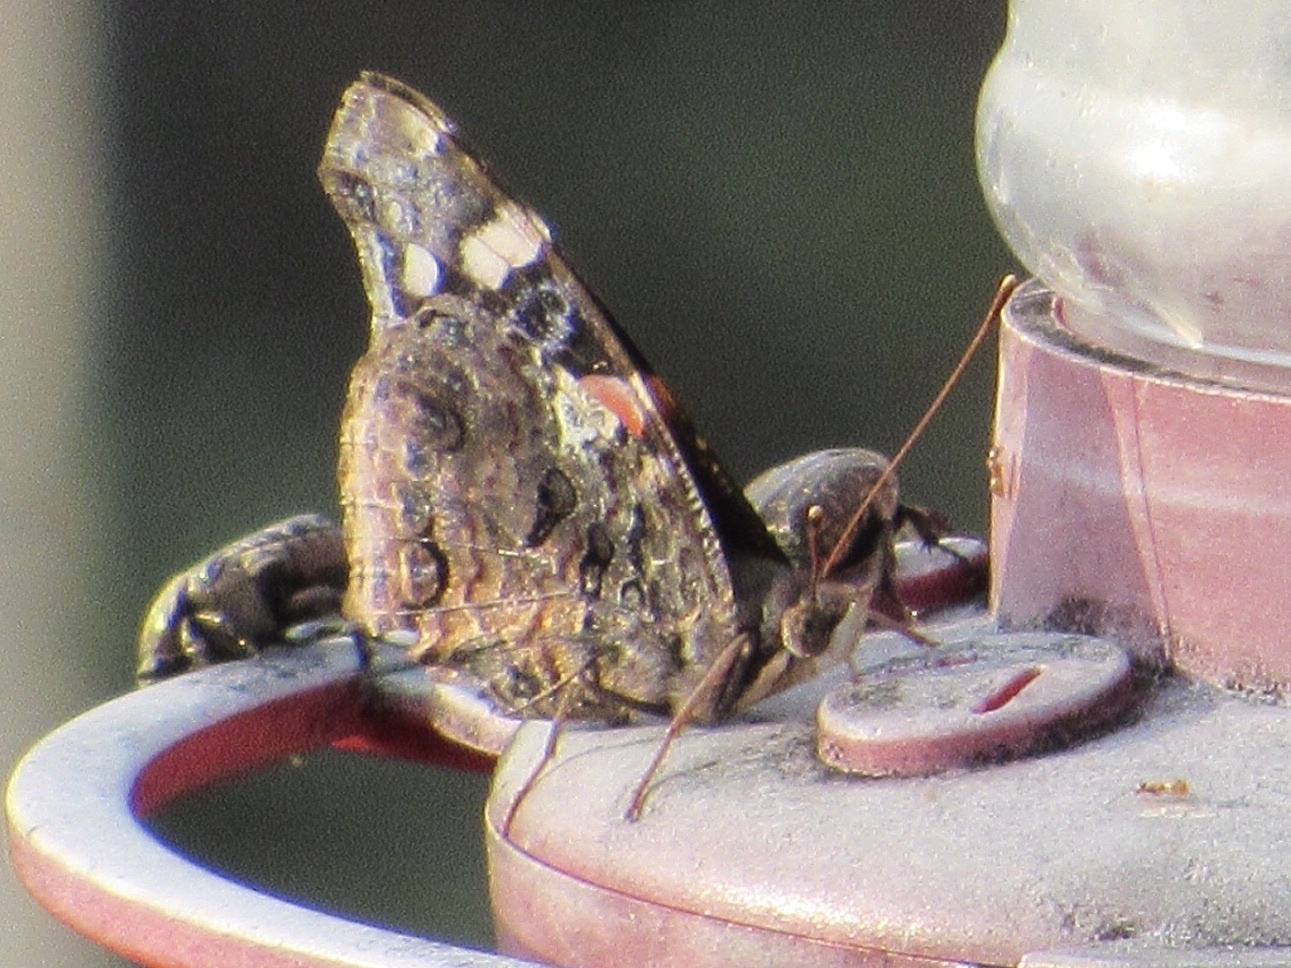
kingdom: Animalia
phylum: Arthropoda
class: Insecta
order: Lepidoptera
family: Nymphalidae
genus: Vanessa
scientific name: Vanessa atalanta
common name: Red admiral
